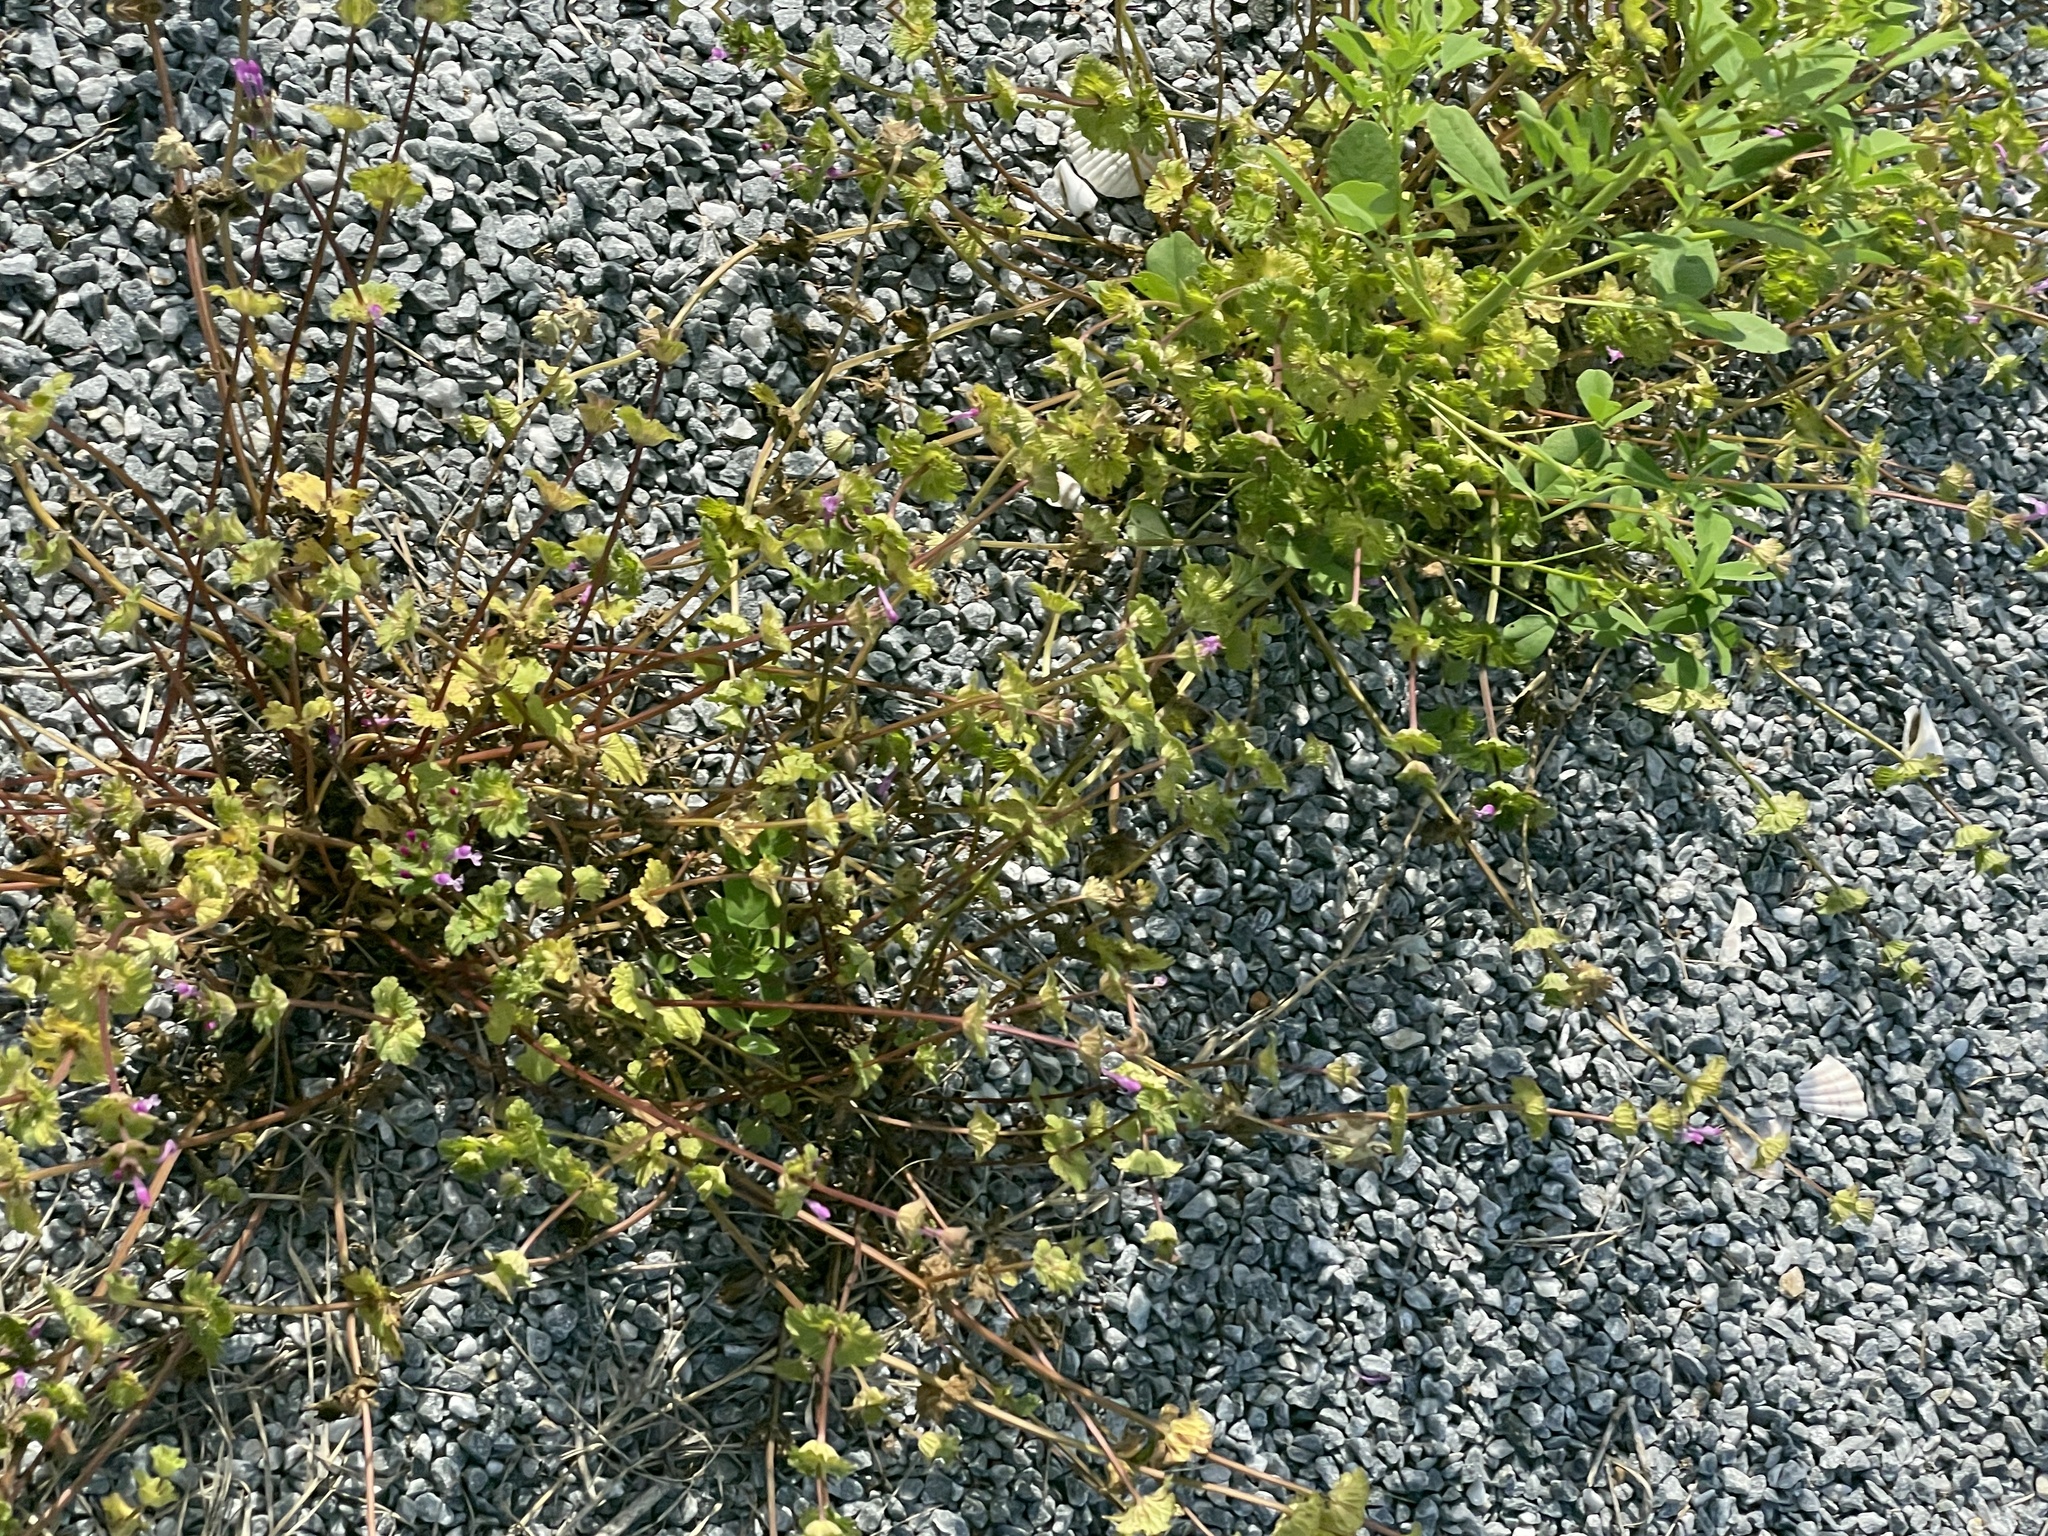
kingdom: Plantae
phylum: Tracheophyta
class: Magnoliopsida
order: Lamiales
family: Lamiaceae
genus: Lamium
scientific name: Lamium amplexicaule
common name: Henbit dead-nettle
